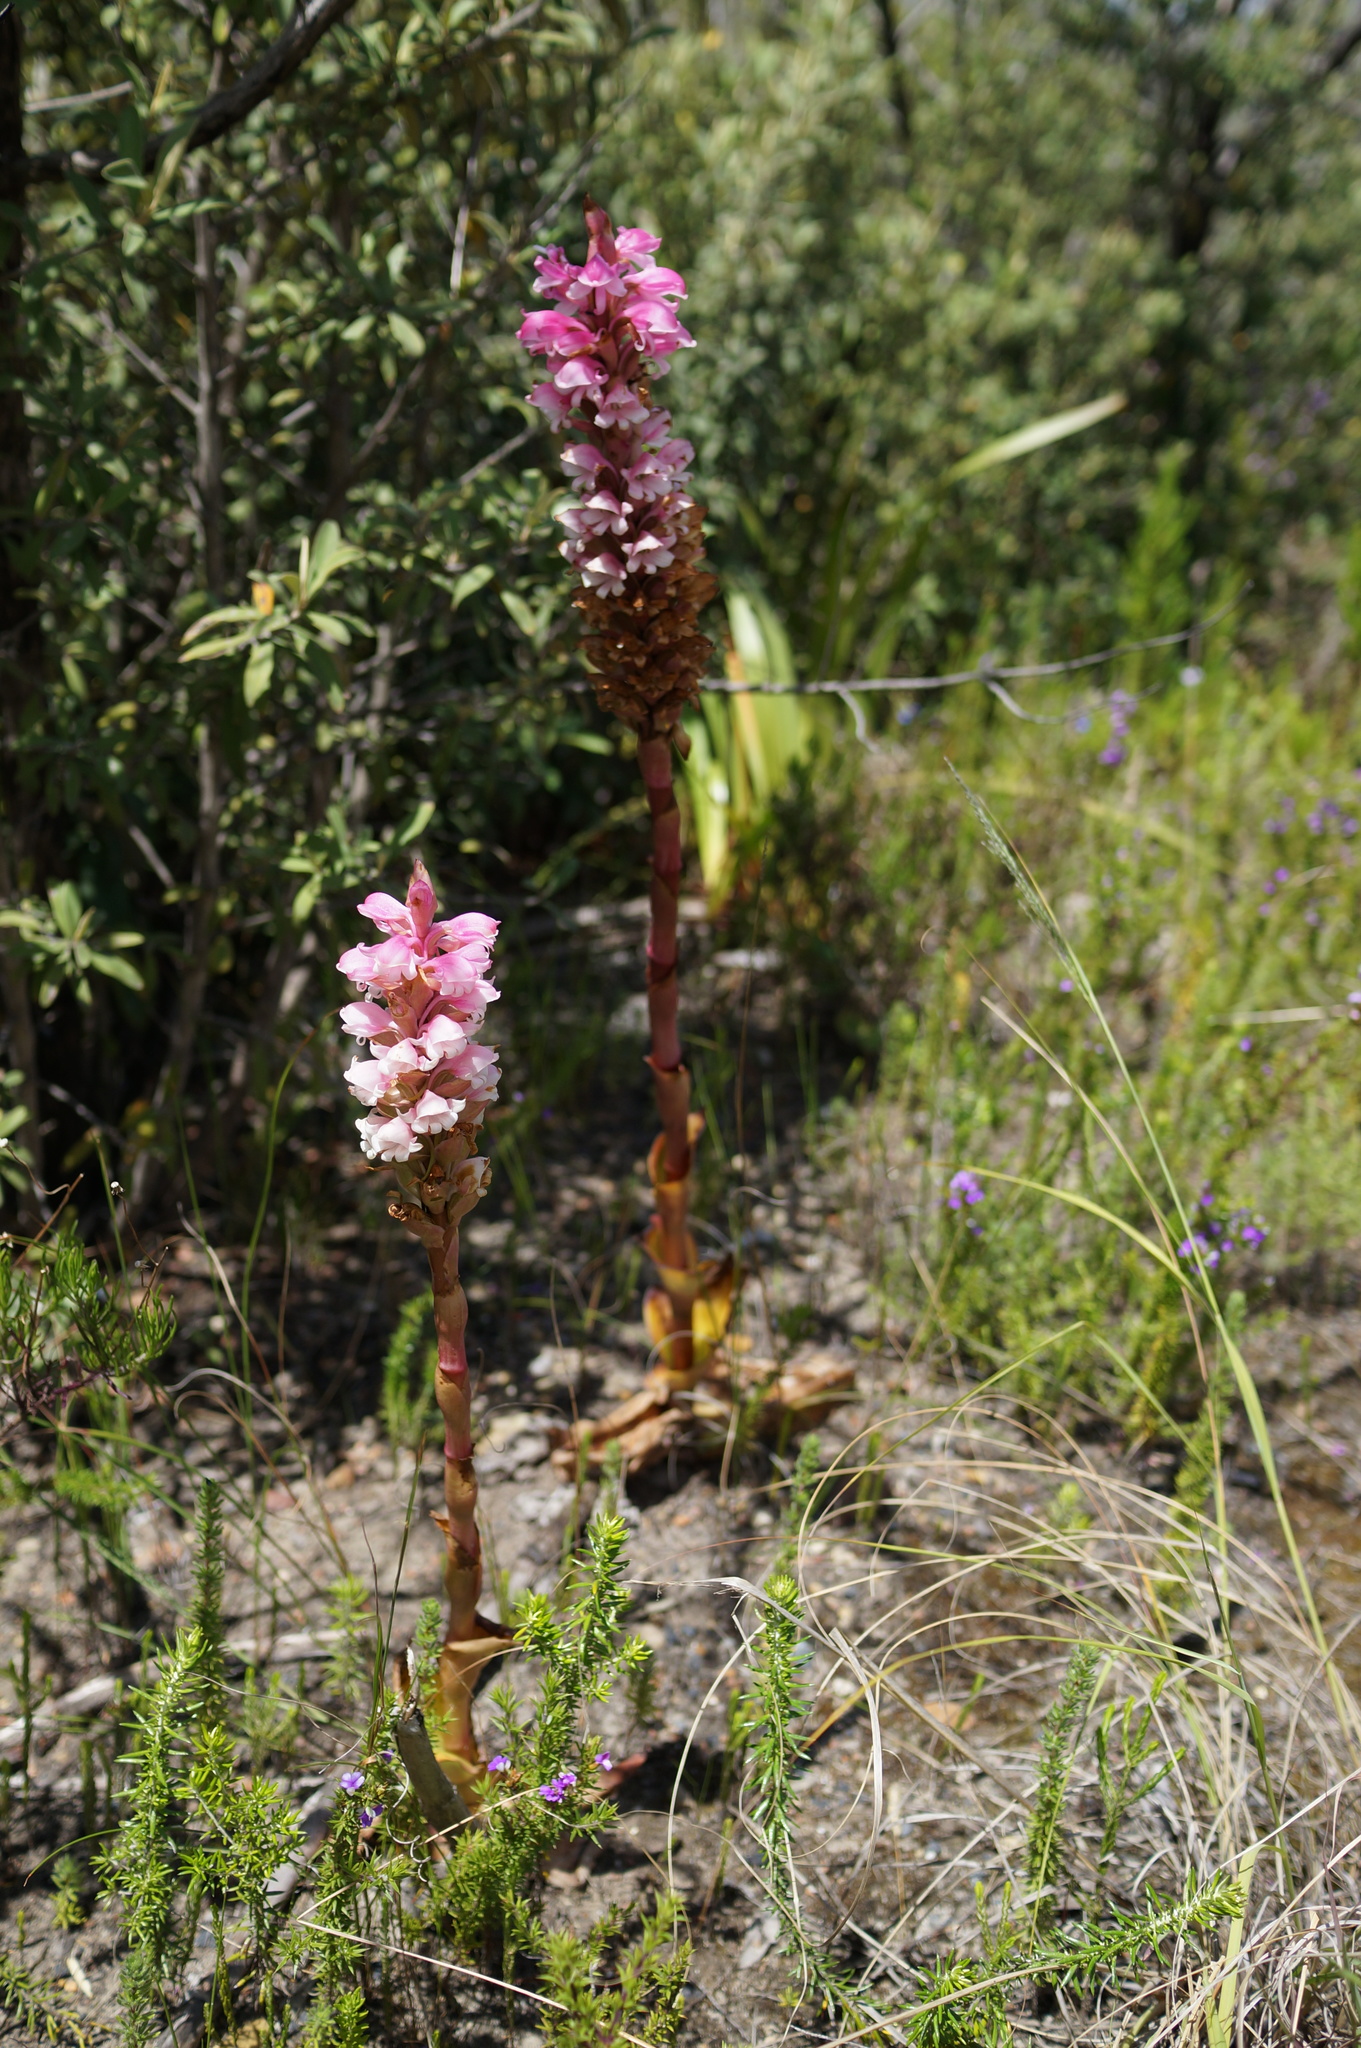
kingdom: Plantae
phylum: Tracheophyta
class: Liliopsida
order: Asparagales
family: Orchidaceae
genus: Satyrium
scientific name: Satyrium carneum
